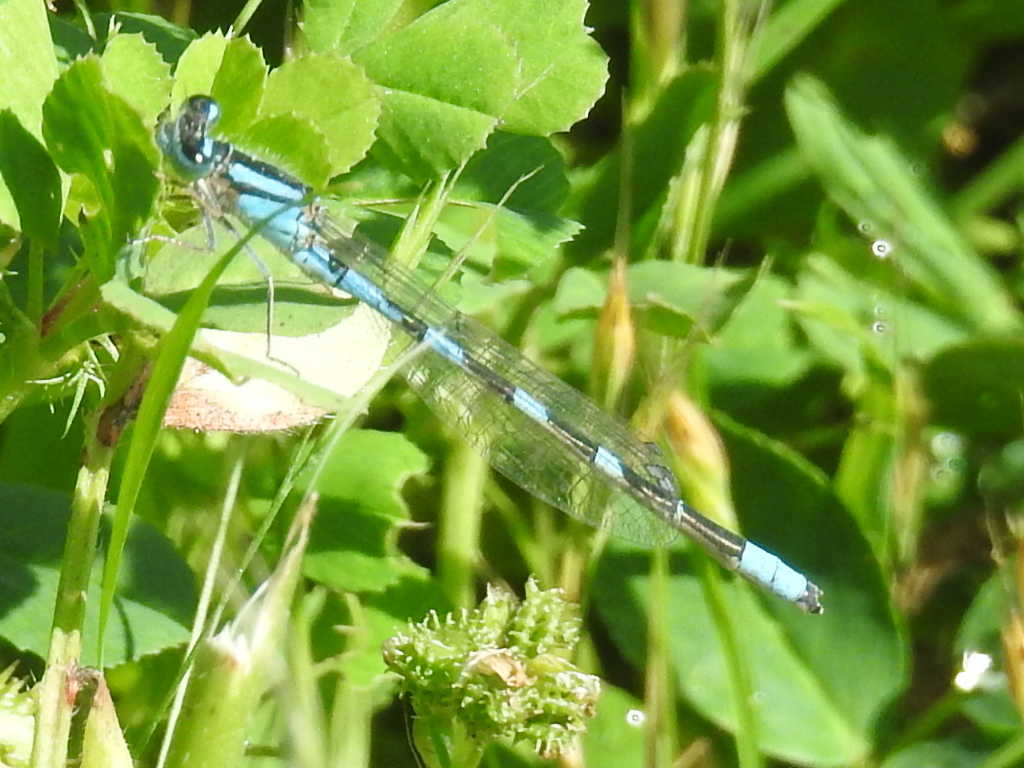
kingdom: Animalia
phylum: Arthropoda
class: Insecta
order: Odonata
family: Coenagrionidae
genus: Enallagma
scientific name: Enallagma carunculatum
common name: Tule bluet
